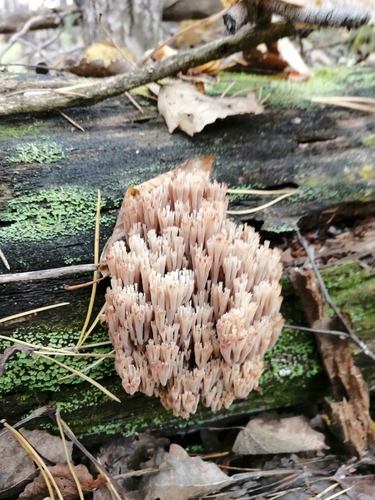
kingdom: Fungi
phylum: Basidiomycota
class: Agaricomycetes
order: Russulales
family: Auriscalpiaceae
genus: Artomyces
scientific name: Artomyces pyxidatus
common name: Crown-tipped coral fungus
